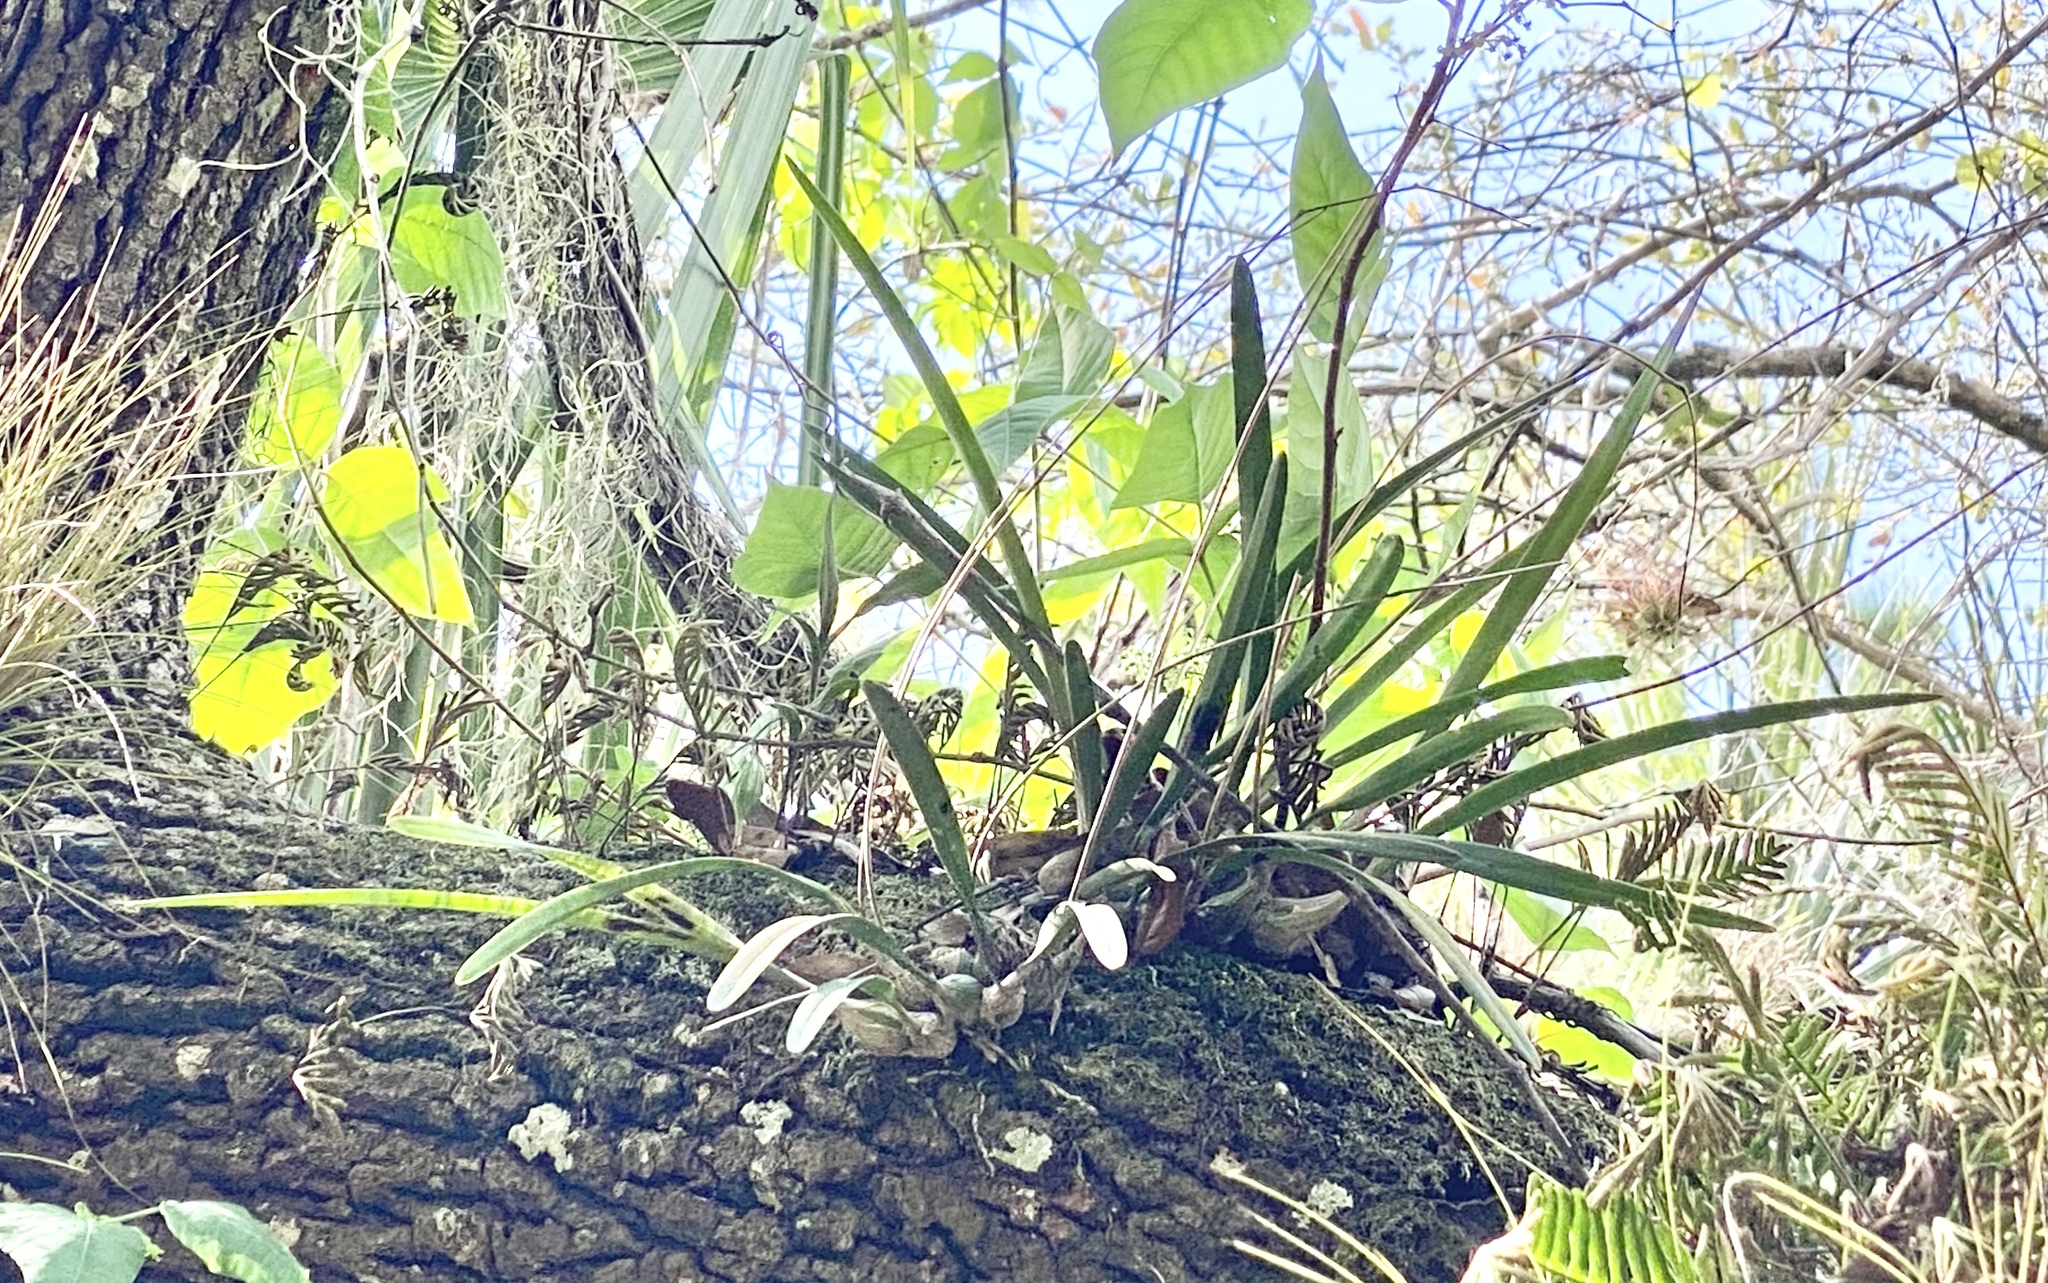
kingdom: Plantae
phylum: Tracheophyta
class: Liliopsida
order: Asparagales
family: Orchidaceae
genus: Encyclia
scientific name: Encyclia tampensis
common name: Florida butterfly orchid
